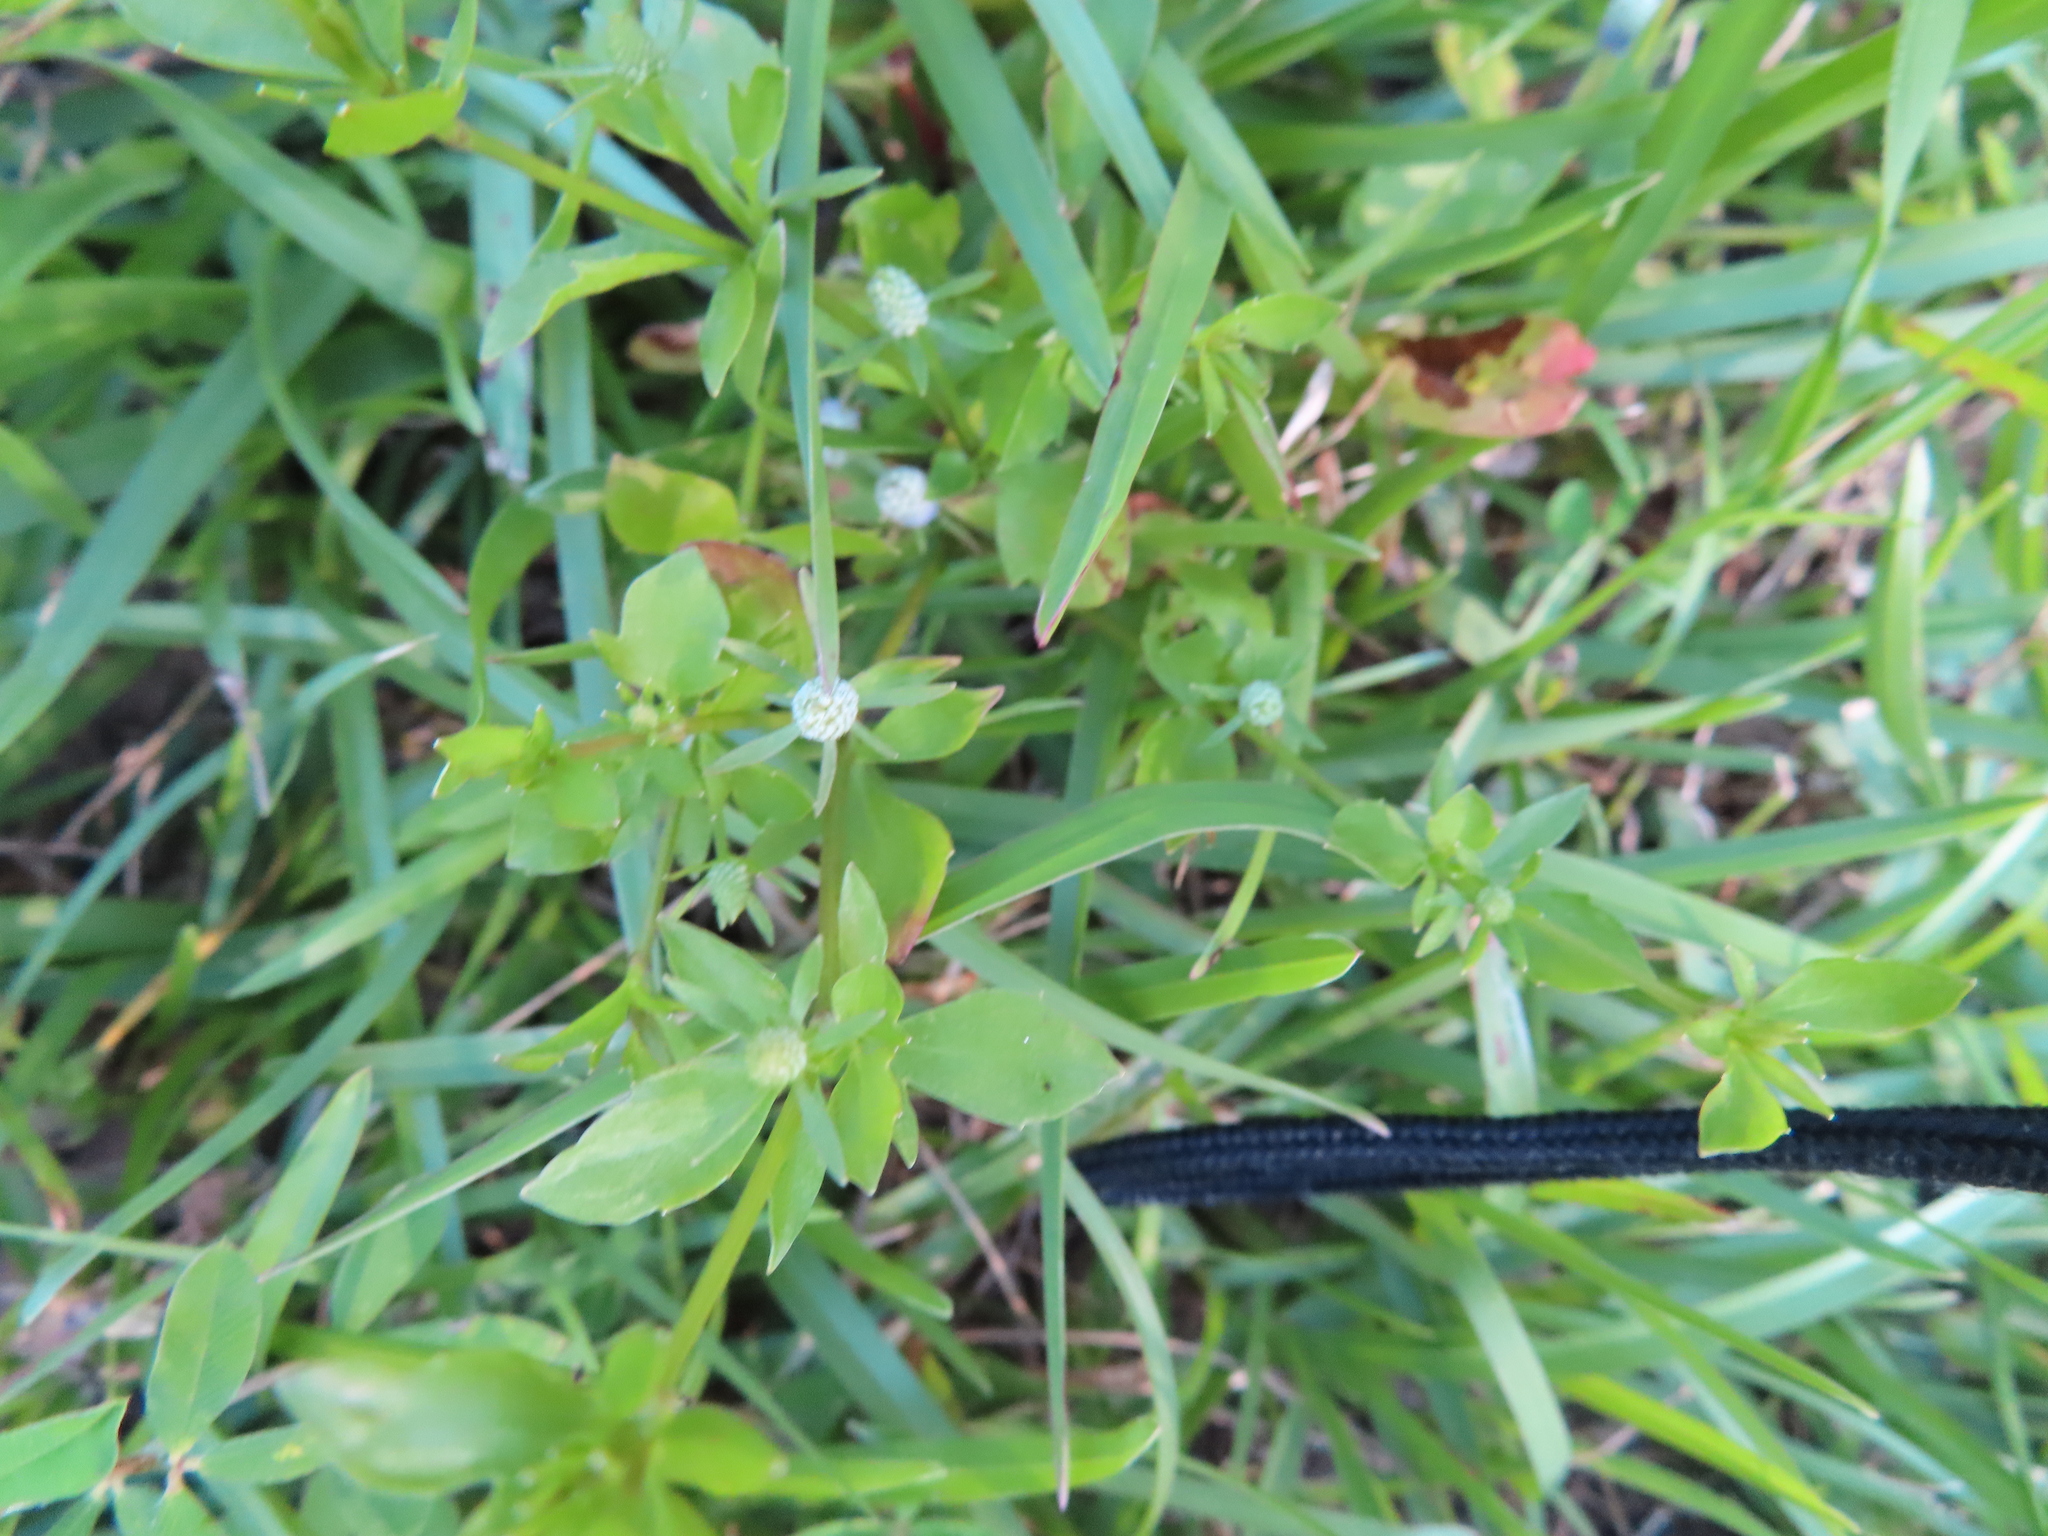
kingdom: Plantae
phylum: Tracheophyta
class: Magnoliopsida
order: Apiales
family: Apiaceae
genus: Eryngium
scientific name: Eryngium prostratum
